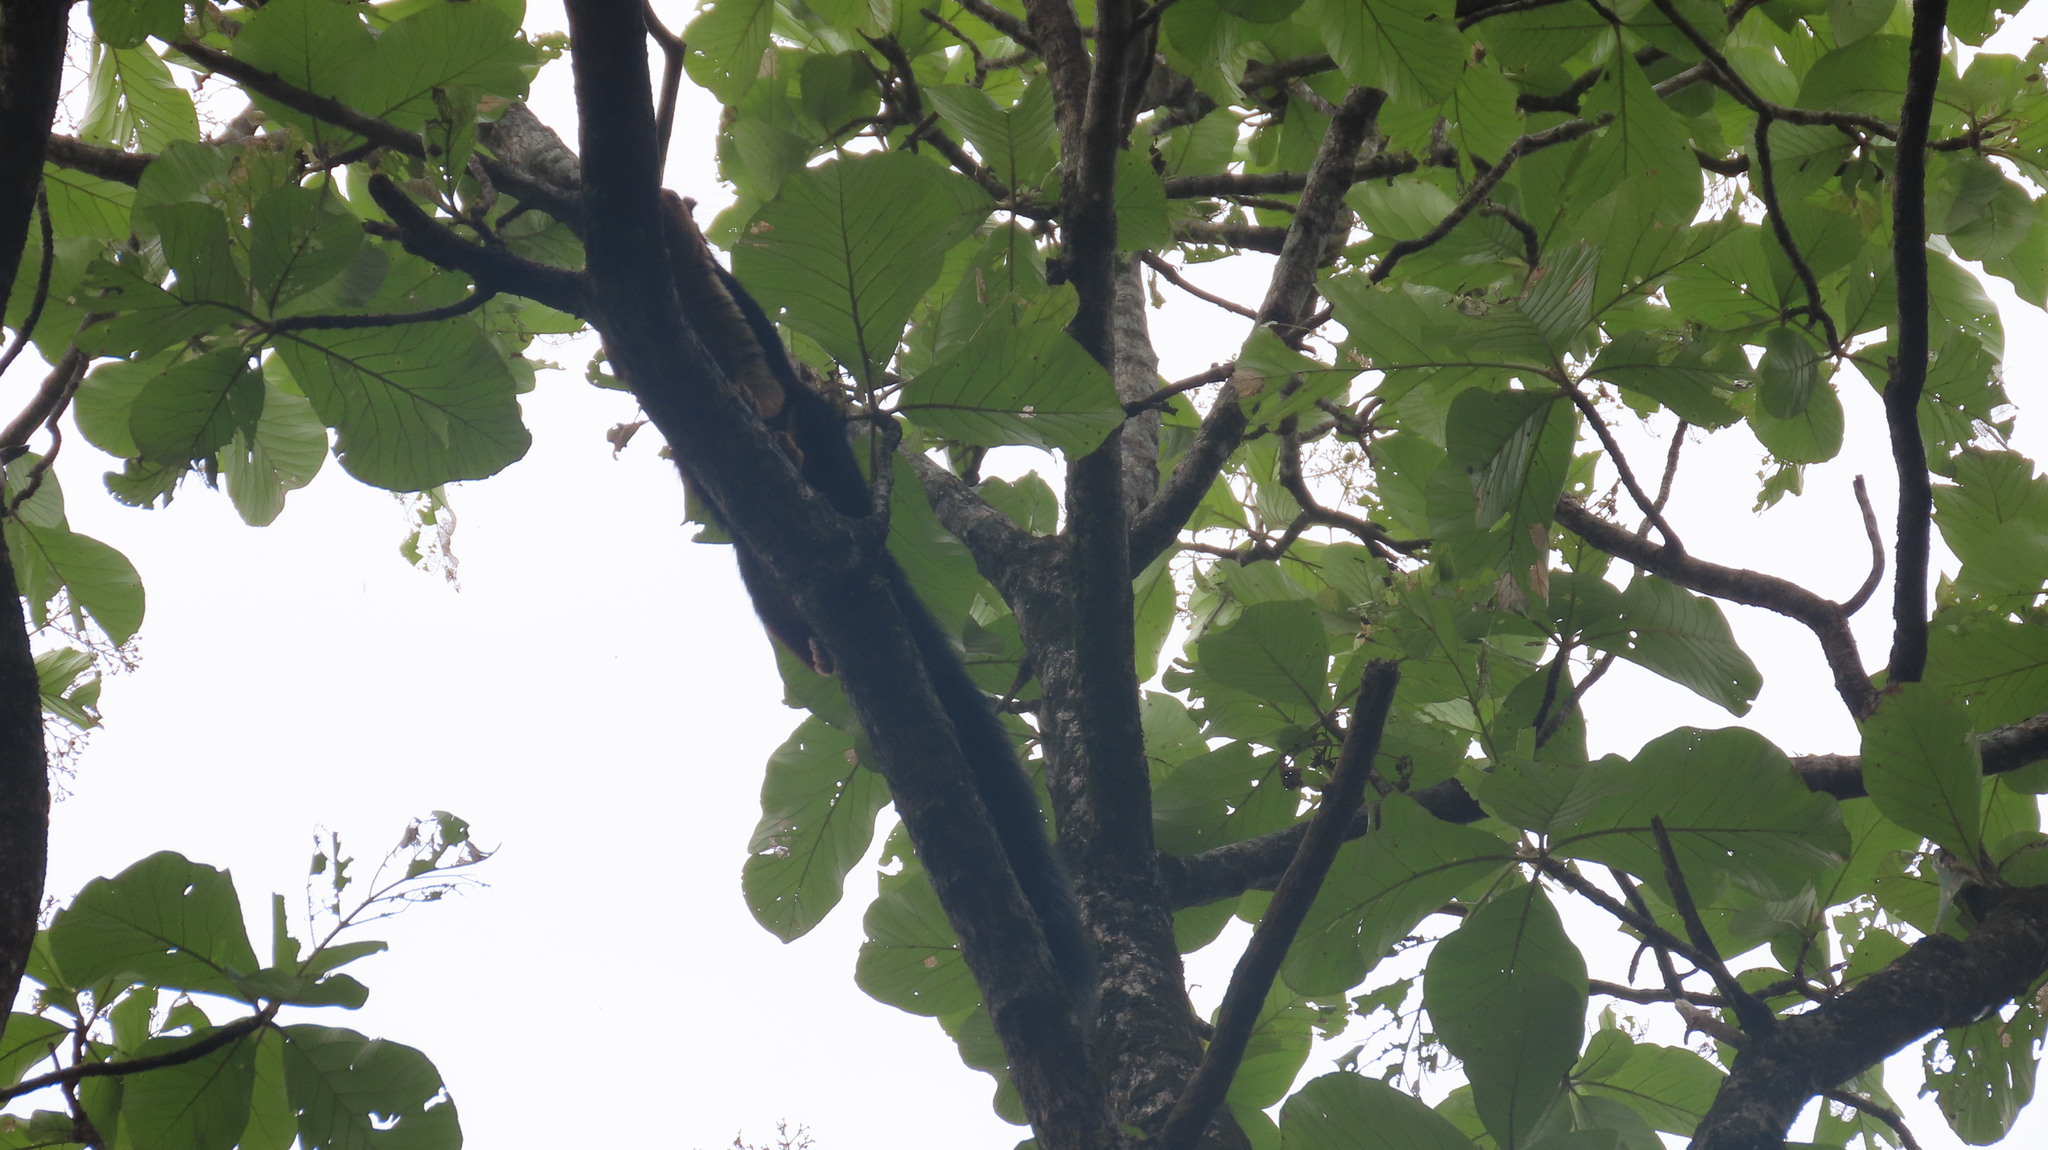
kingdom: Animalia
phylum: Chordata
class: Mammalia
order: Rodentia
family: Sciuridae
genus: Ratufa
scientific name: Ratufa indica
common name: Indian giant squirrel
